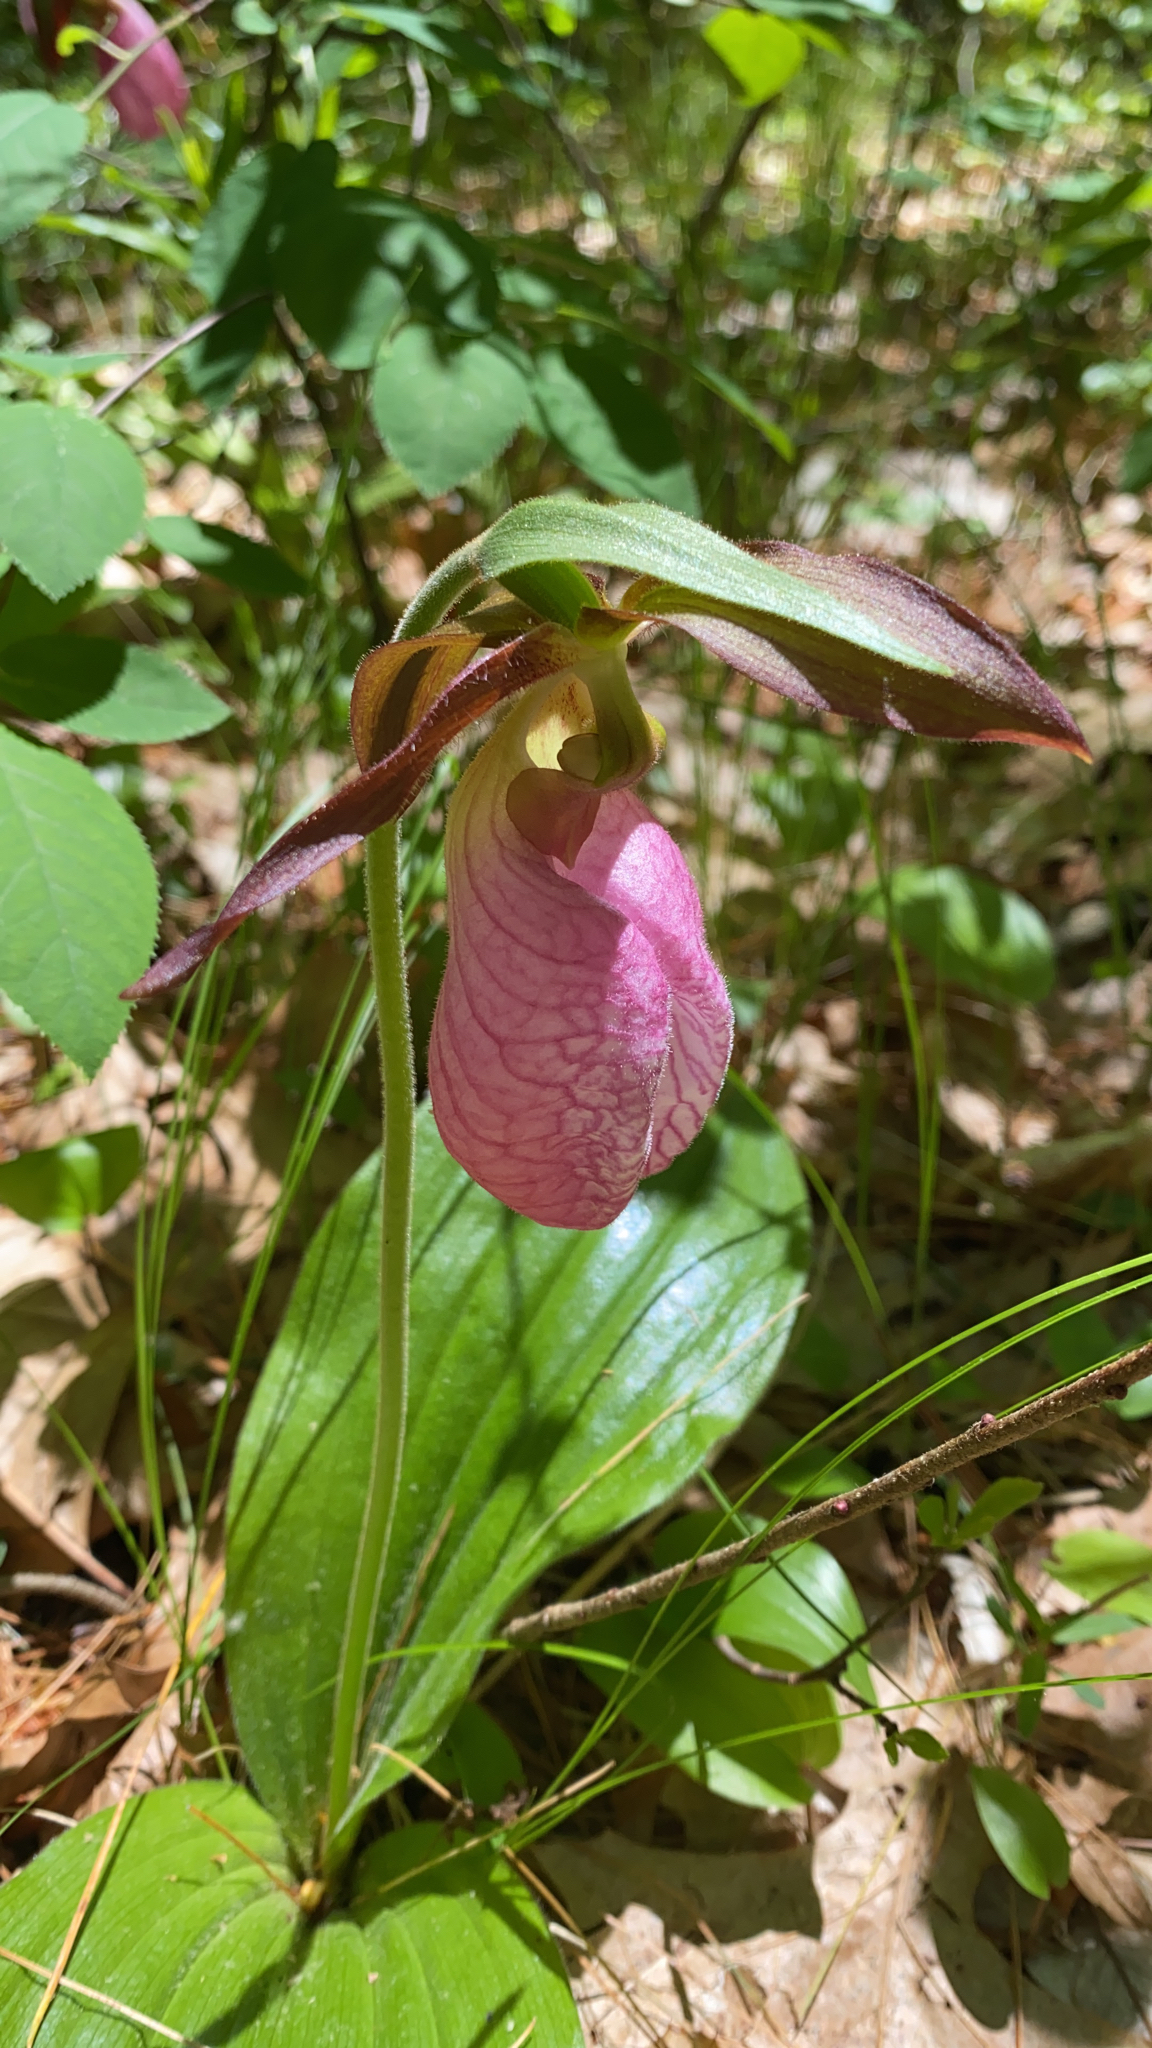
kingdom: Plantae
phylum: Tracheophyta
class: Liliopsida
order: Asparagales
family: Orchidaceae
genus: Cypripedium
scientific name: Cypripedium acaule
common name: Pink lady's-slipper
